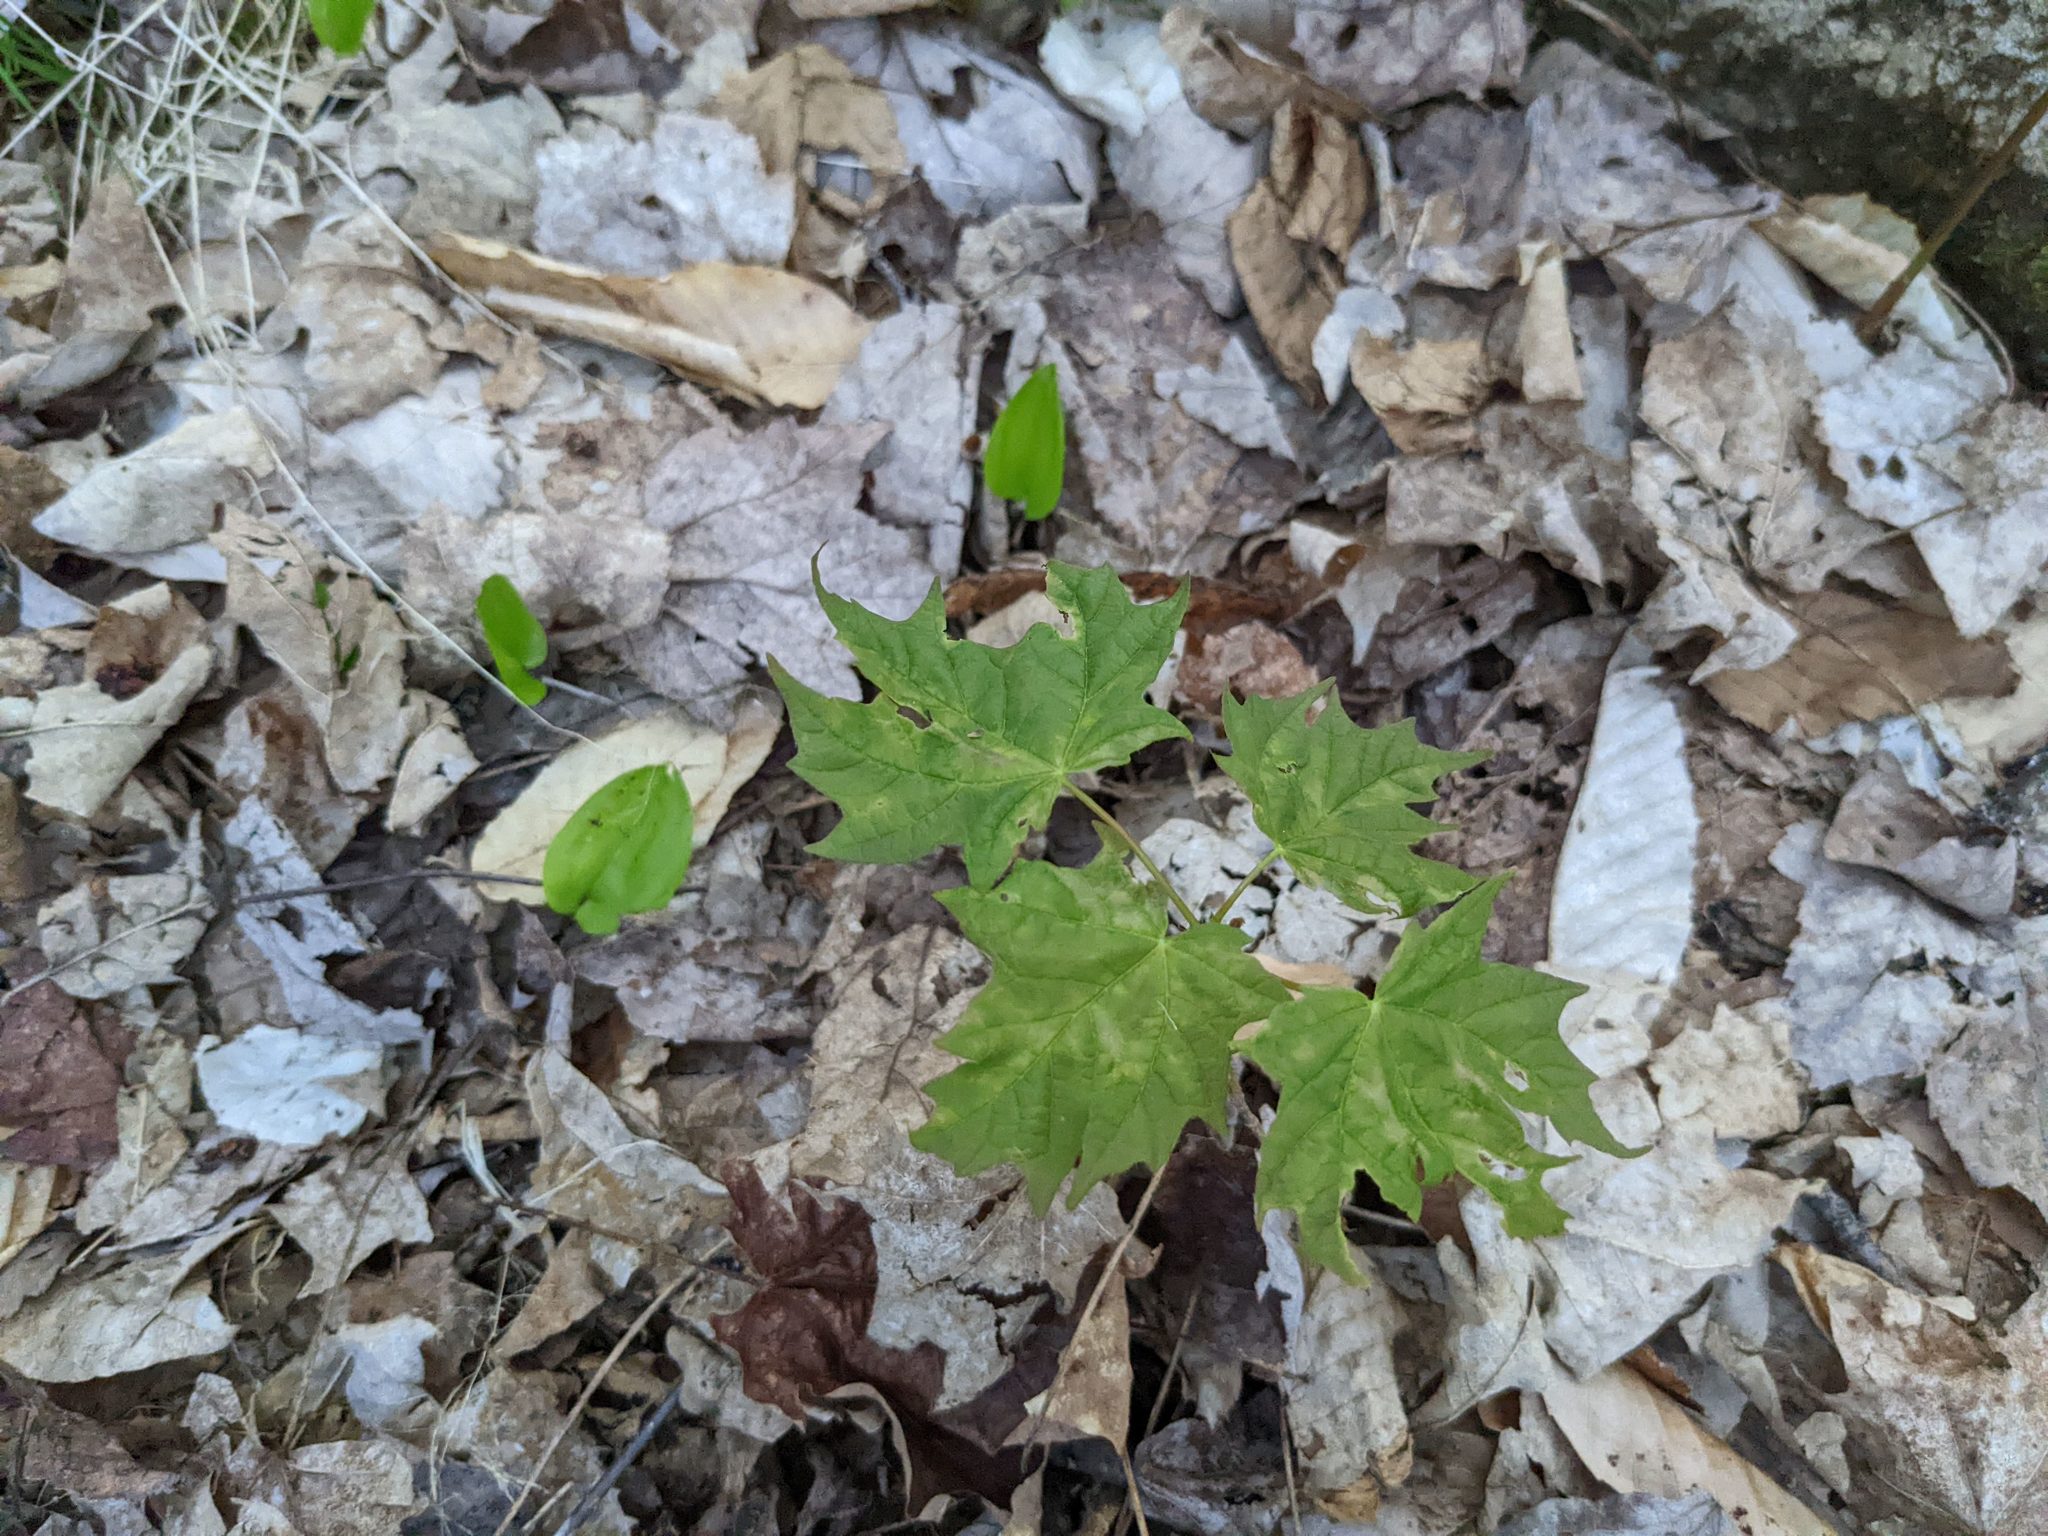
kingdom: Plantae
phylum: Tracheophyta
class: Liliopsida
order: Asparagales
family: Asparagaceae
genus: Maianthemum
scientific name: Maianthemum canadense
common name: False lily-of-the-valley
